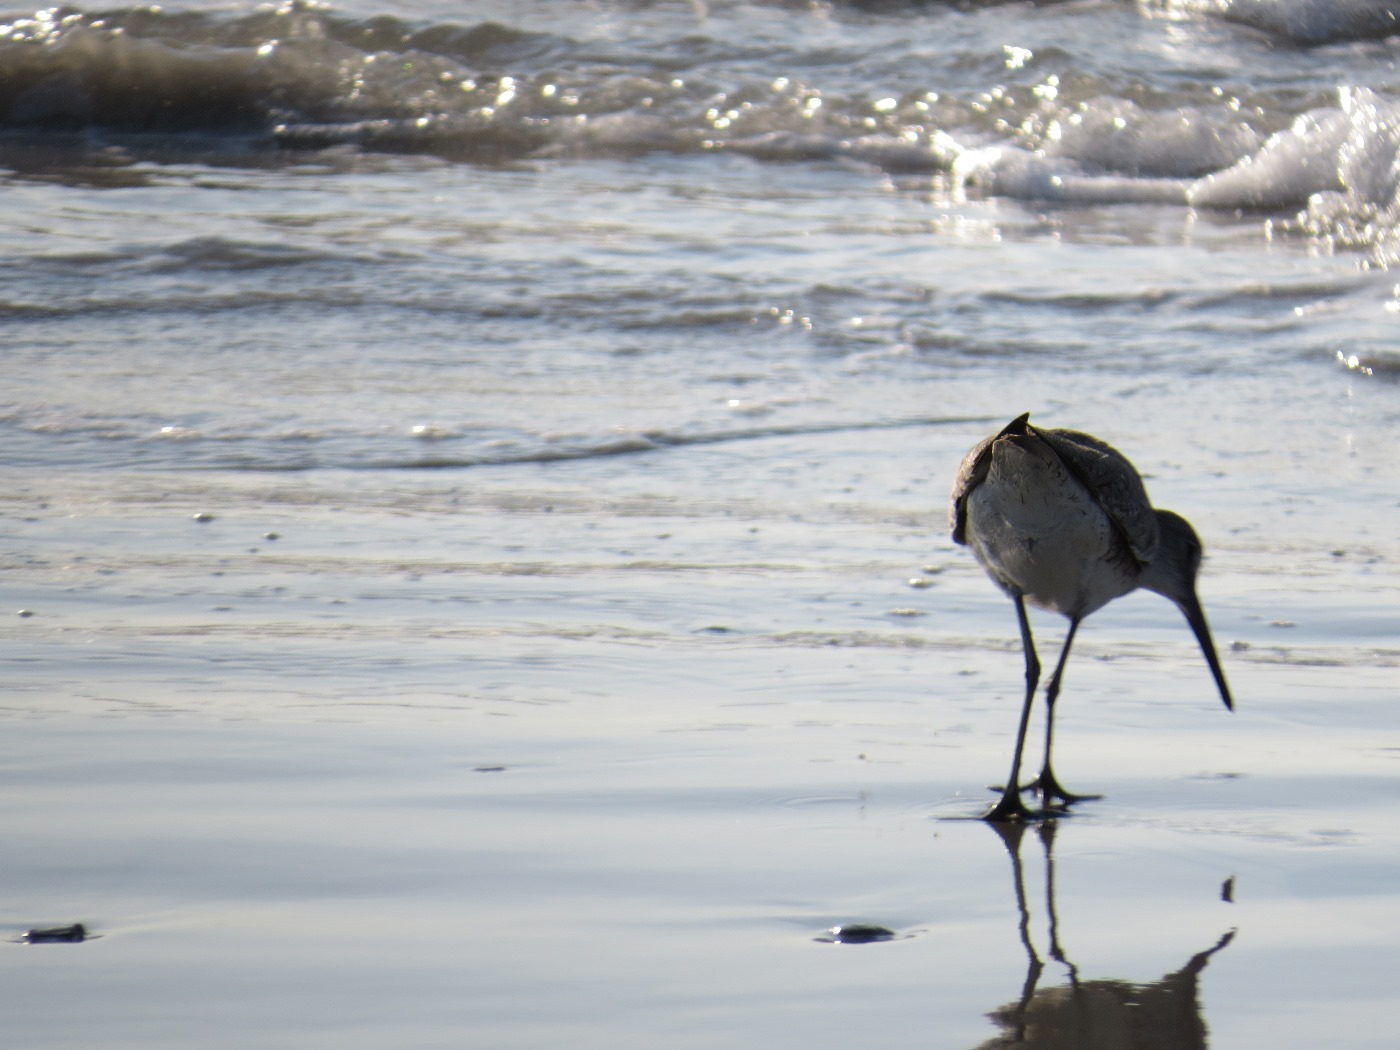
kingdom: Animalia
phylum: Chordata
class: Aves
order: Charadriiformes
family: Scolopacidae
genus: Tringa
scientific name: Tringa semipalmata
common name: Willet
